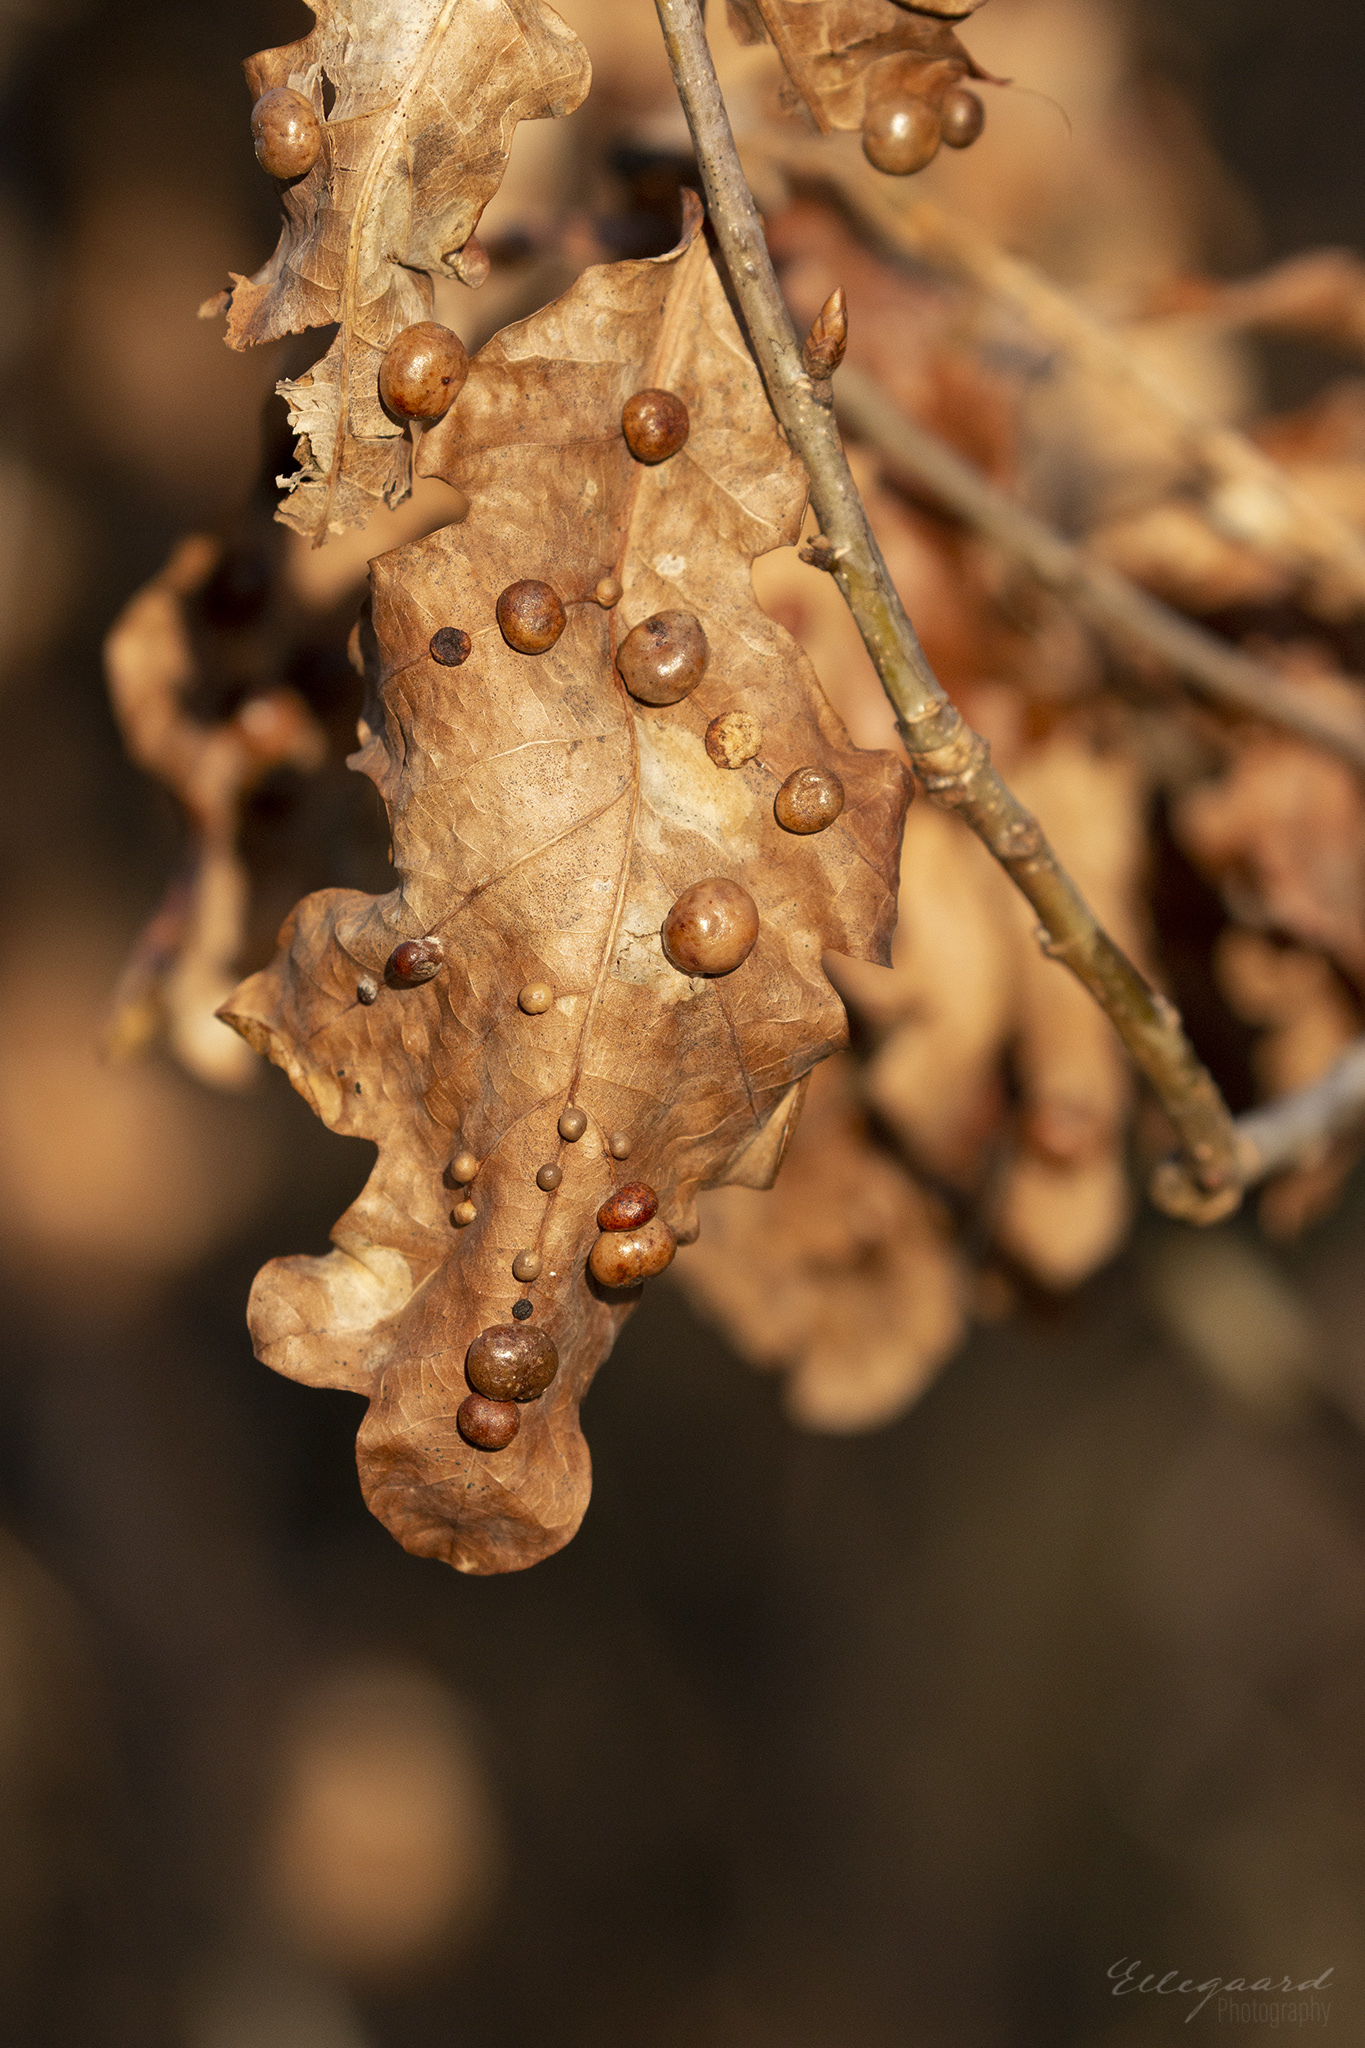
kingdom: Animalia
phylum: Arthropoda
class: Insecta
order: Hymenoptera
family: Cynipidae
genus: Cynips
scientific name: Cynips divisa
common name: Red currant gall
